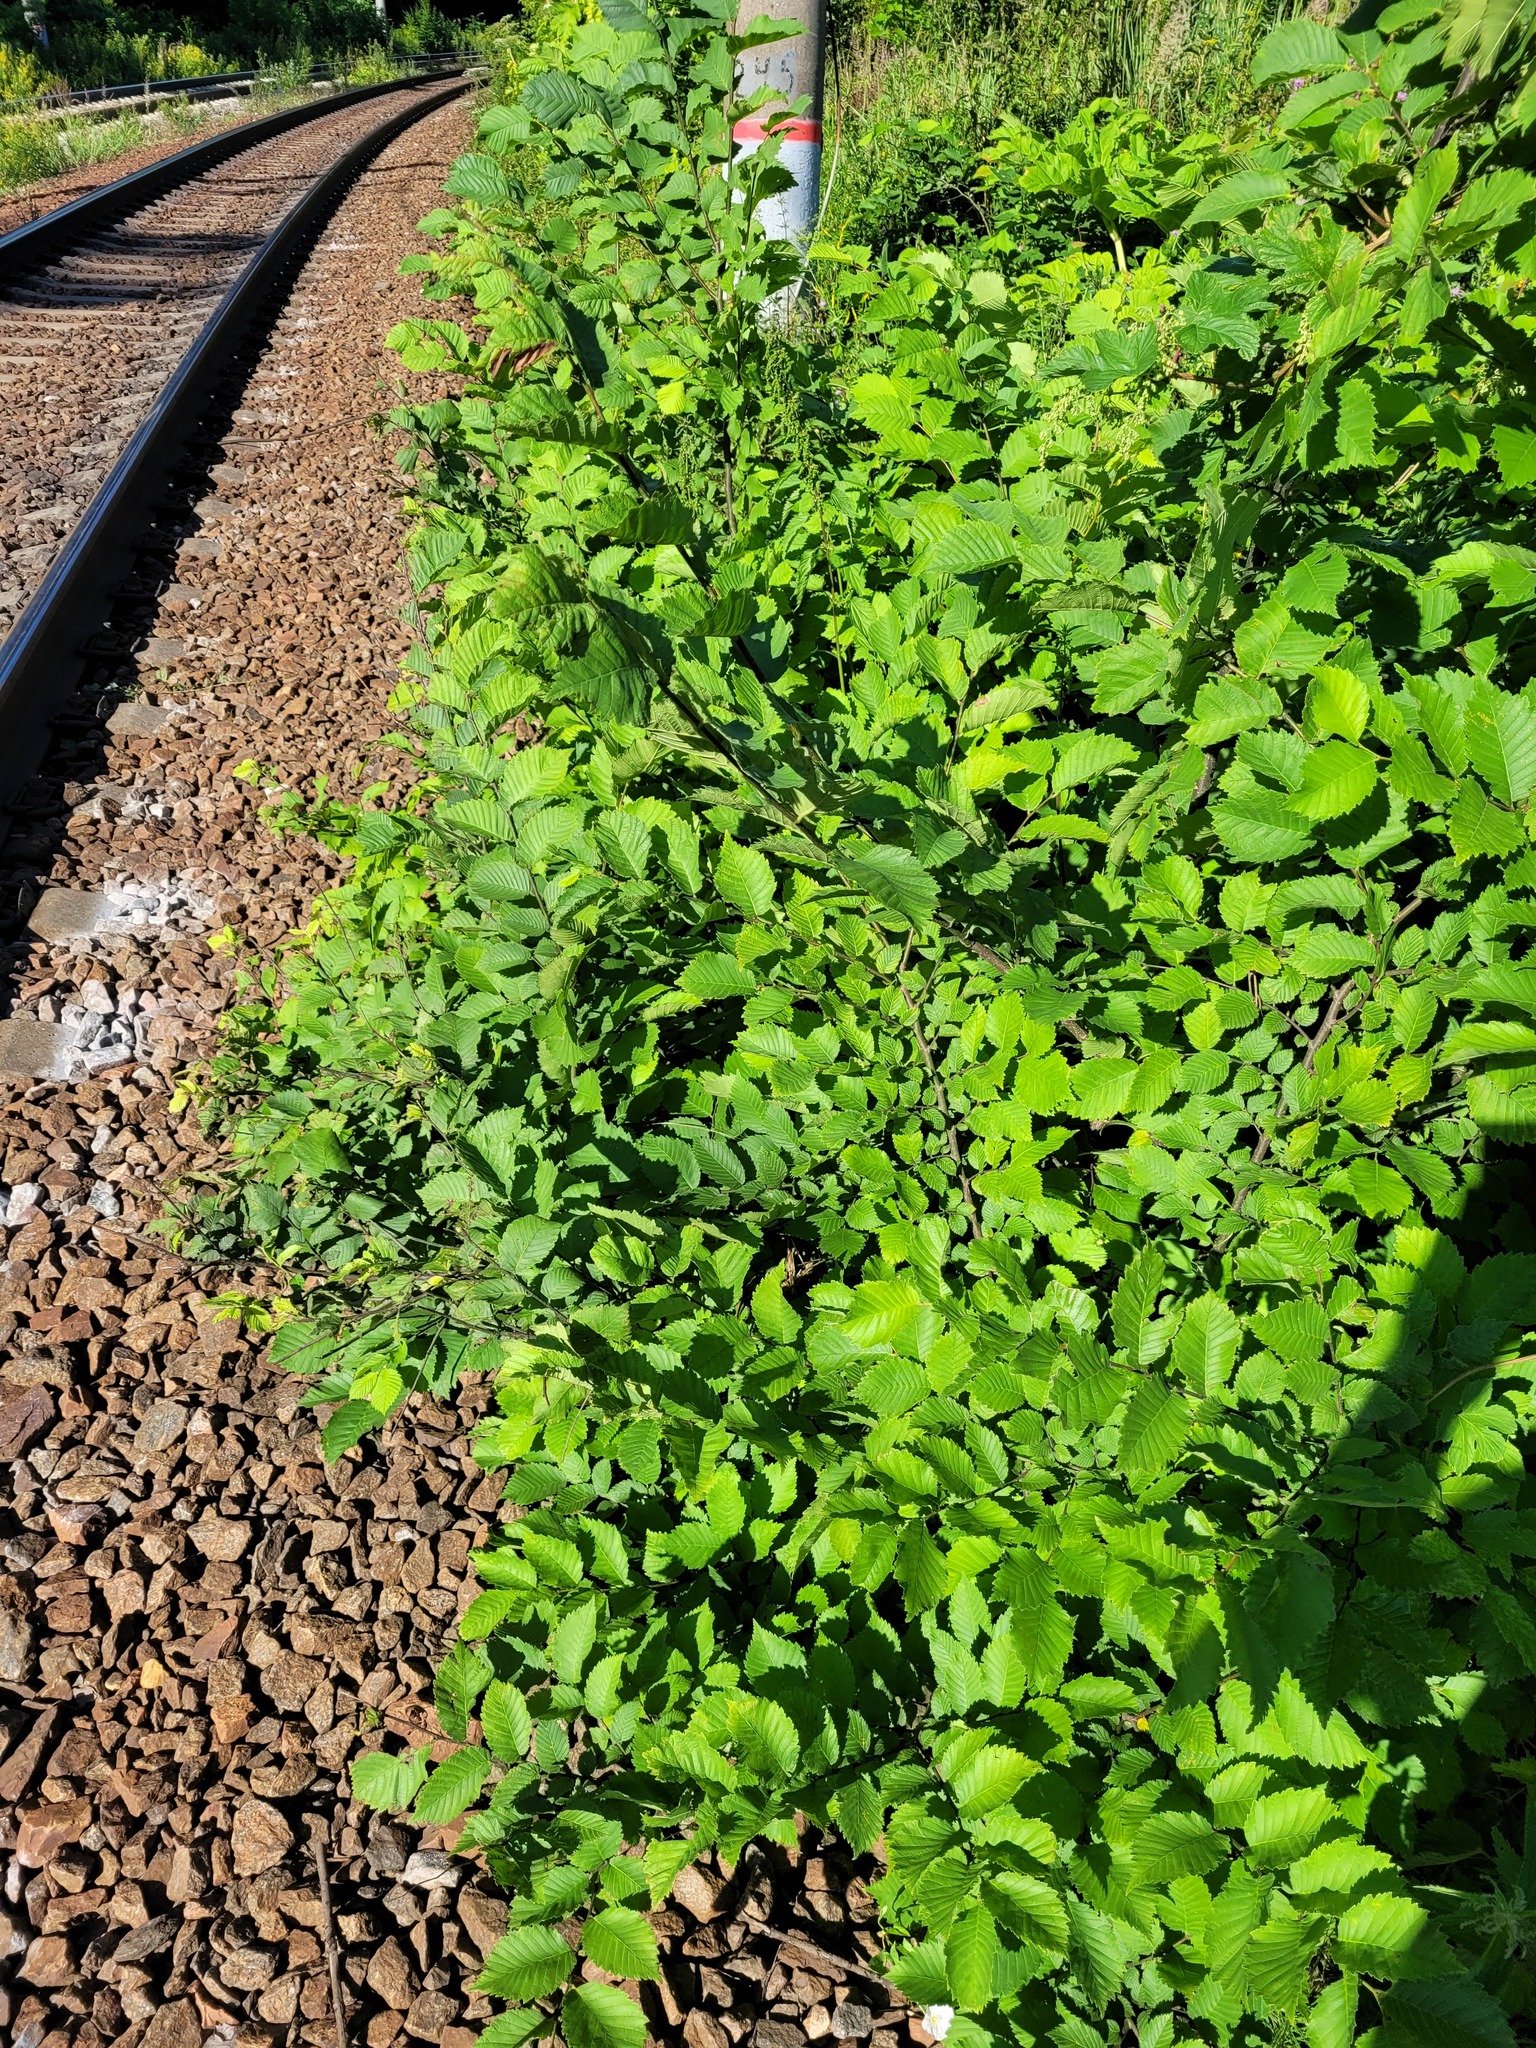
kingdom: Plantae
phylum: Tracheophyta
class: Magnoliopsida
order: Rosales
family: Ulmaceae
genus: Ulmus
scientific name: Ulmus laevis
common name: European white-elm
